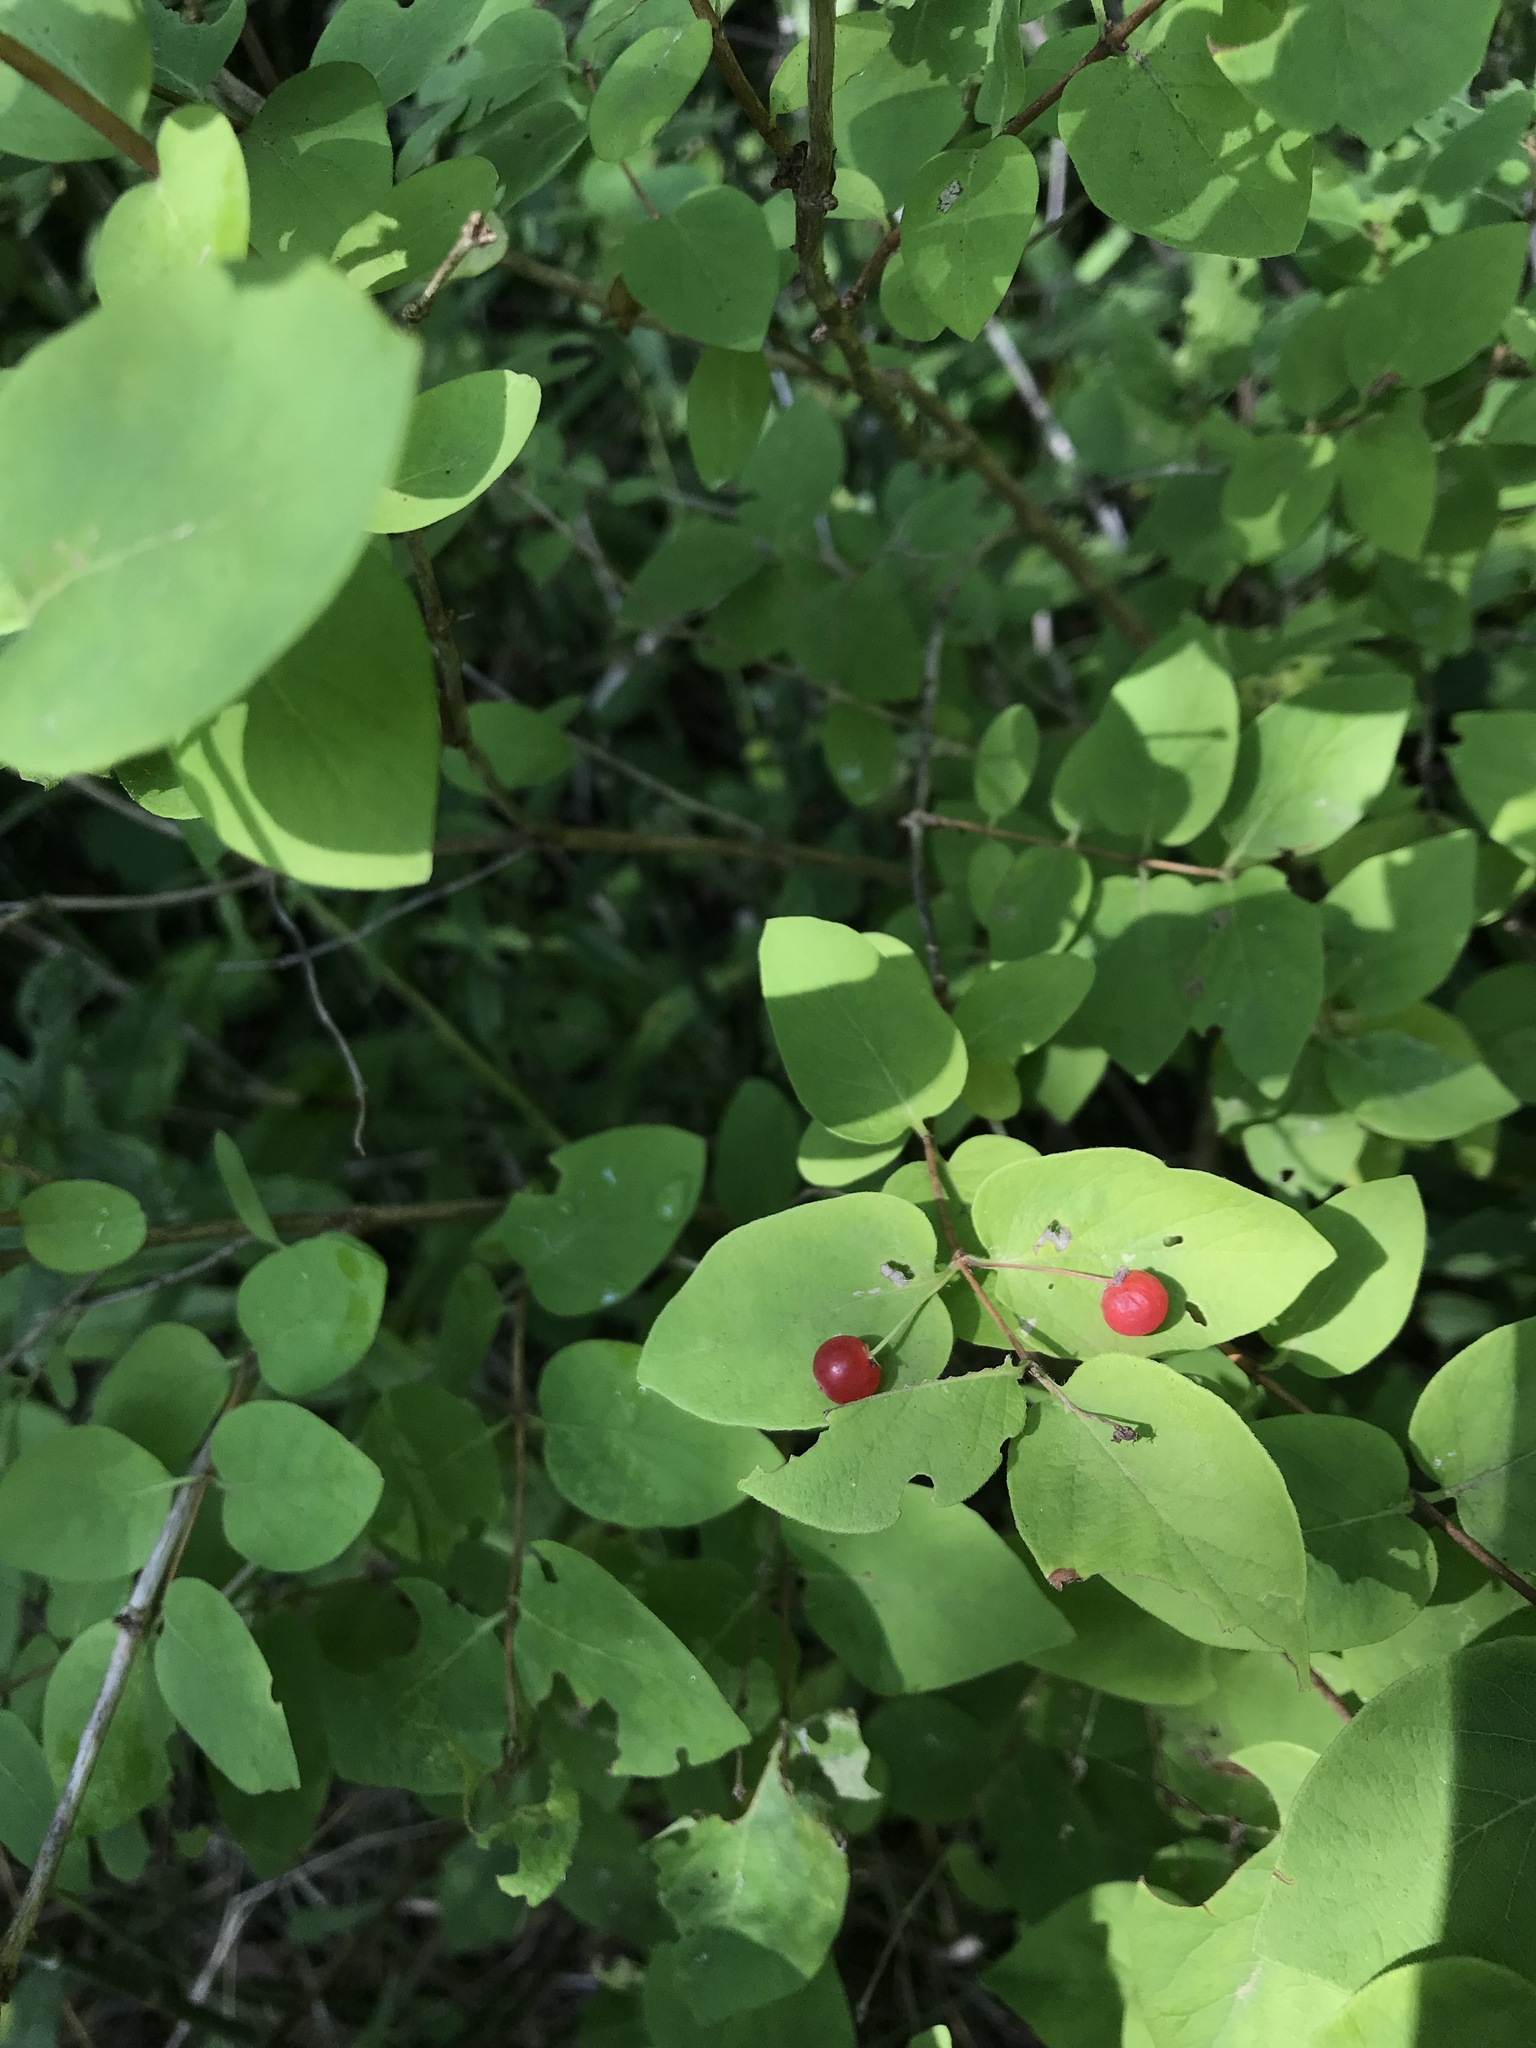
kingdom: Plantae
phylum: Tracheophyta
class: Magnoliopsida
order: Dipsacales
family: Caprifoliaceae
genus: Lonicera
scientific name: Lonicera bella
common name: Bell's honeysuckle
